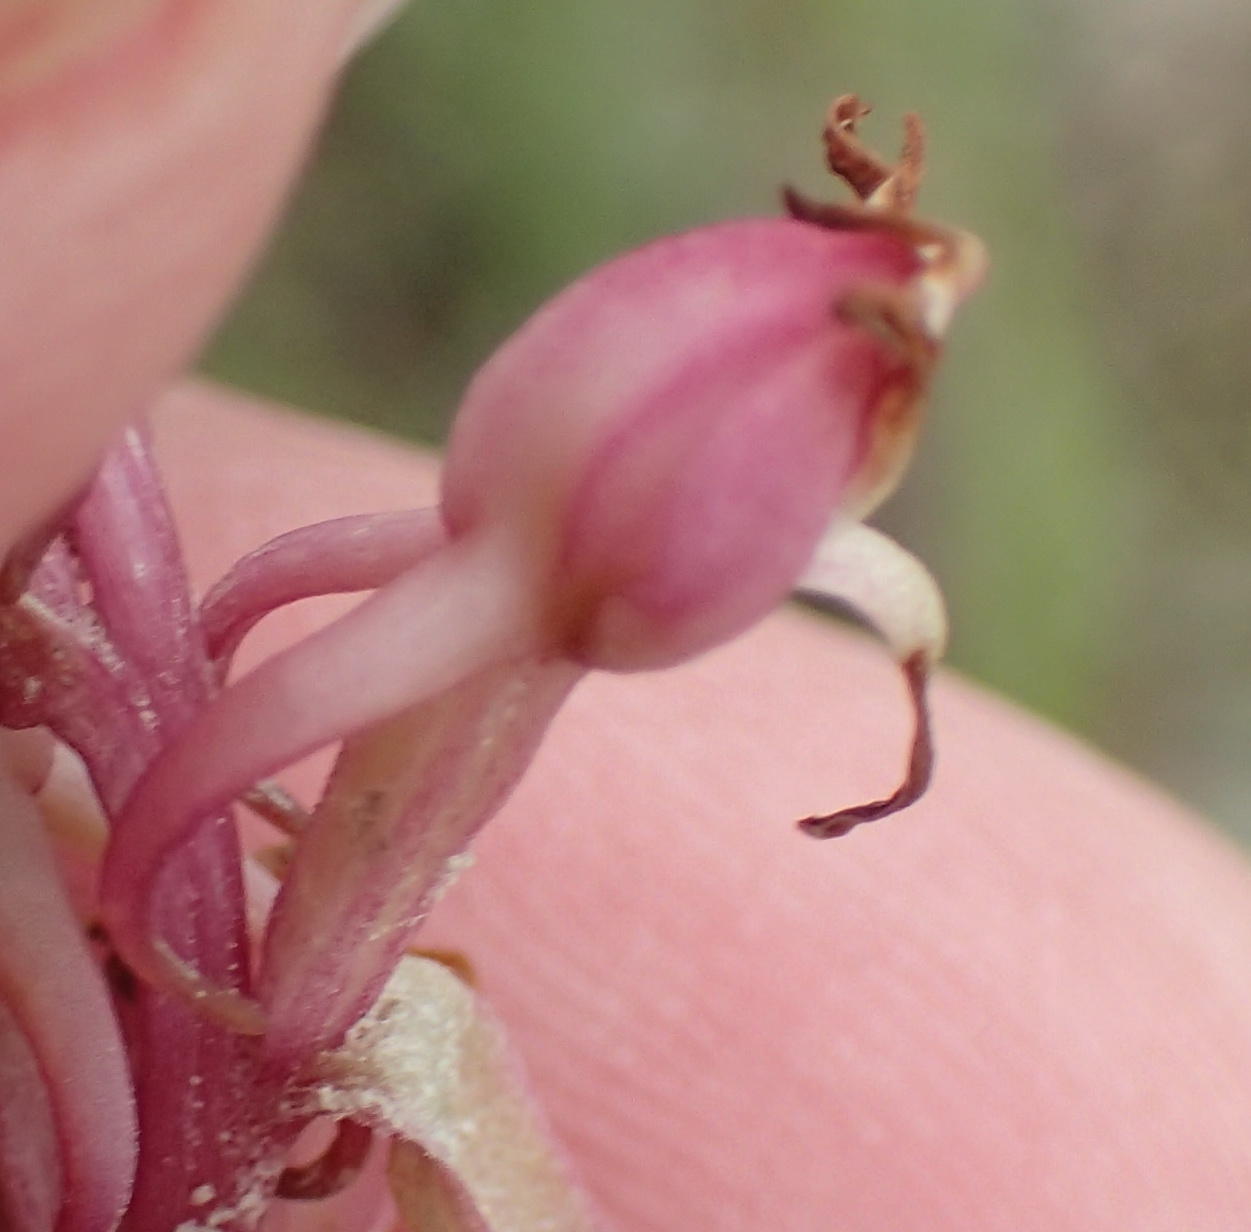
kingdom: Plantae
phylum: Tracheophyta
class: Liliopsida
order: Asparagales
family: Orchidaceae
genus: Satyrium
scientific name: Satyrium ligulatum
